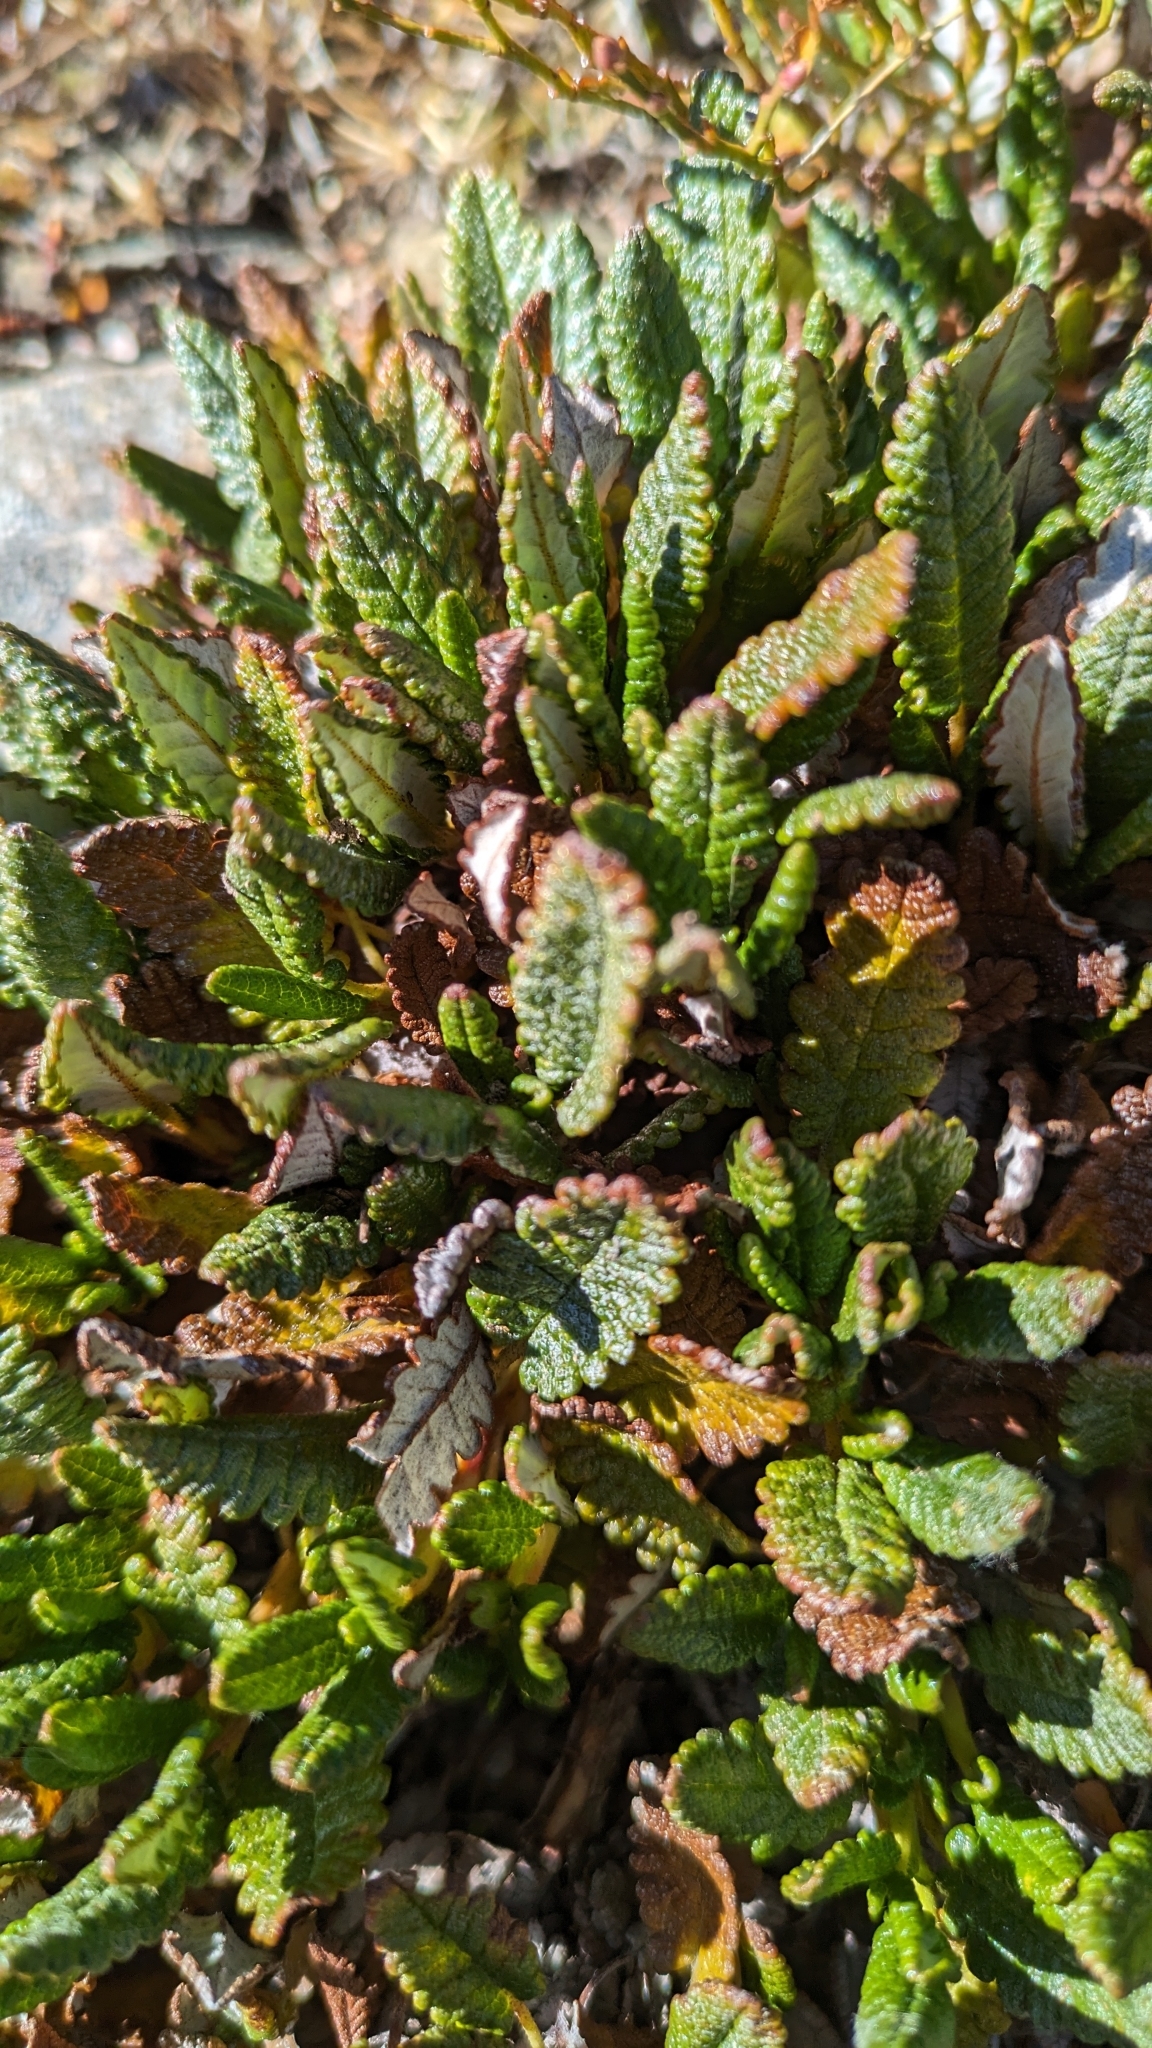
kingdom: Plantae
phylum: Tracheophyta
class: Magnoliopsida
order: Rosales
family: Rosaceae
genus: Dryas
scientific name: Dryas octopetala
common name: Eight-petal mountain-avens
